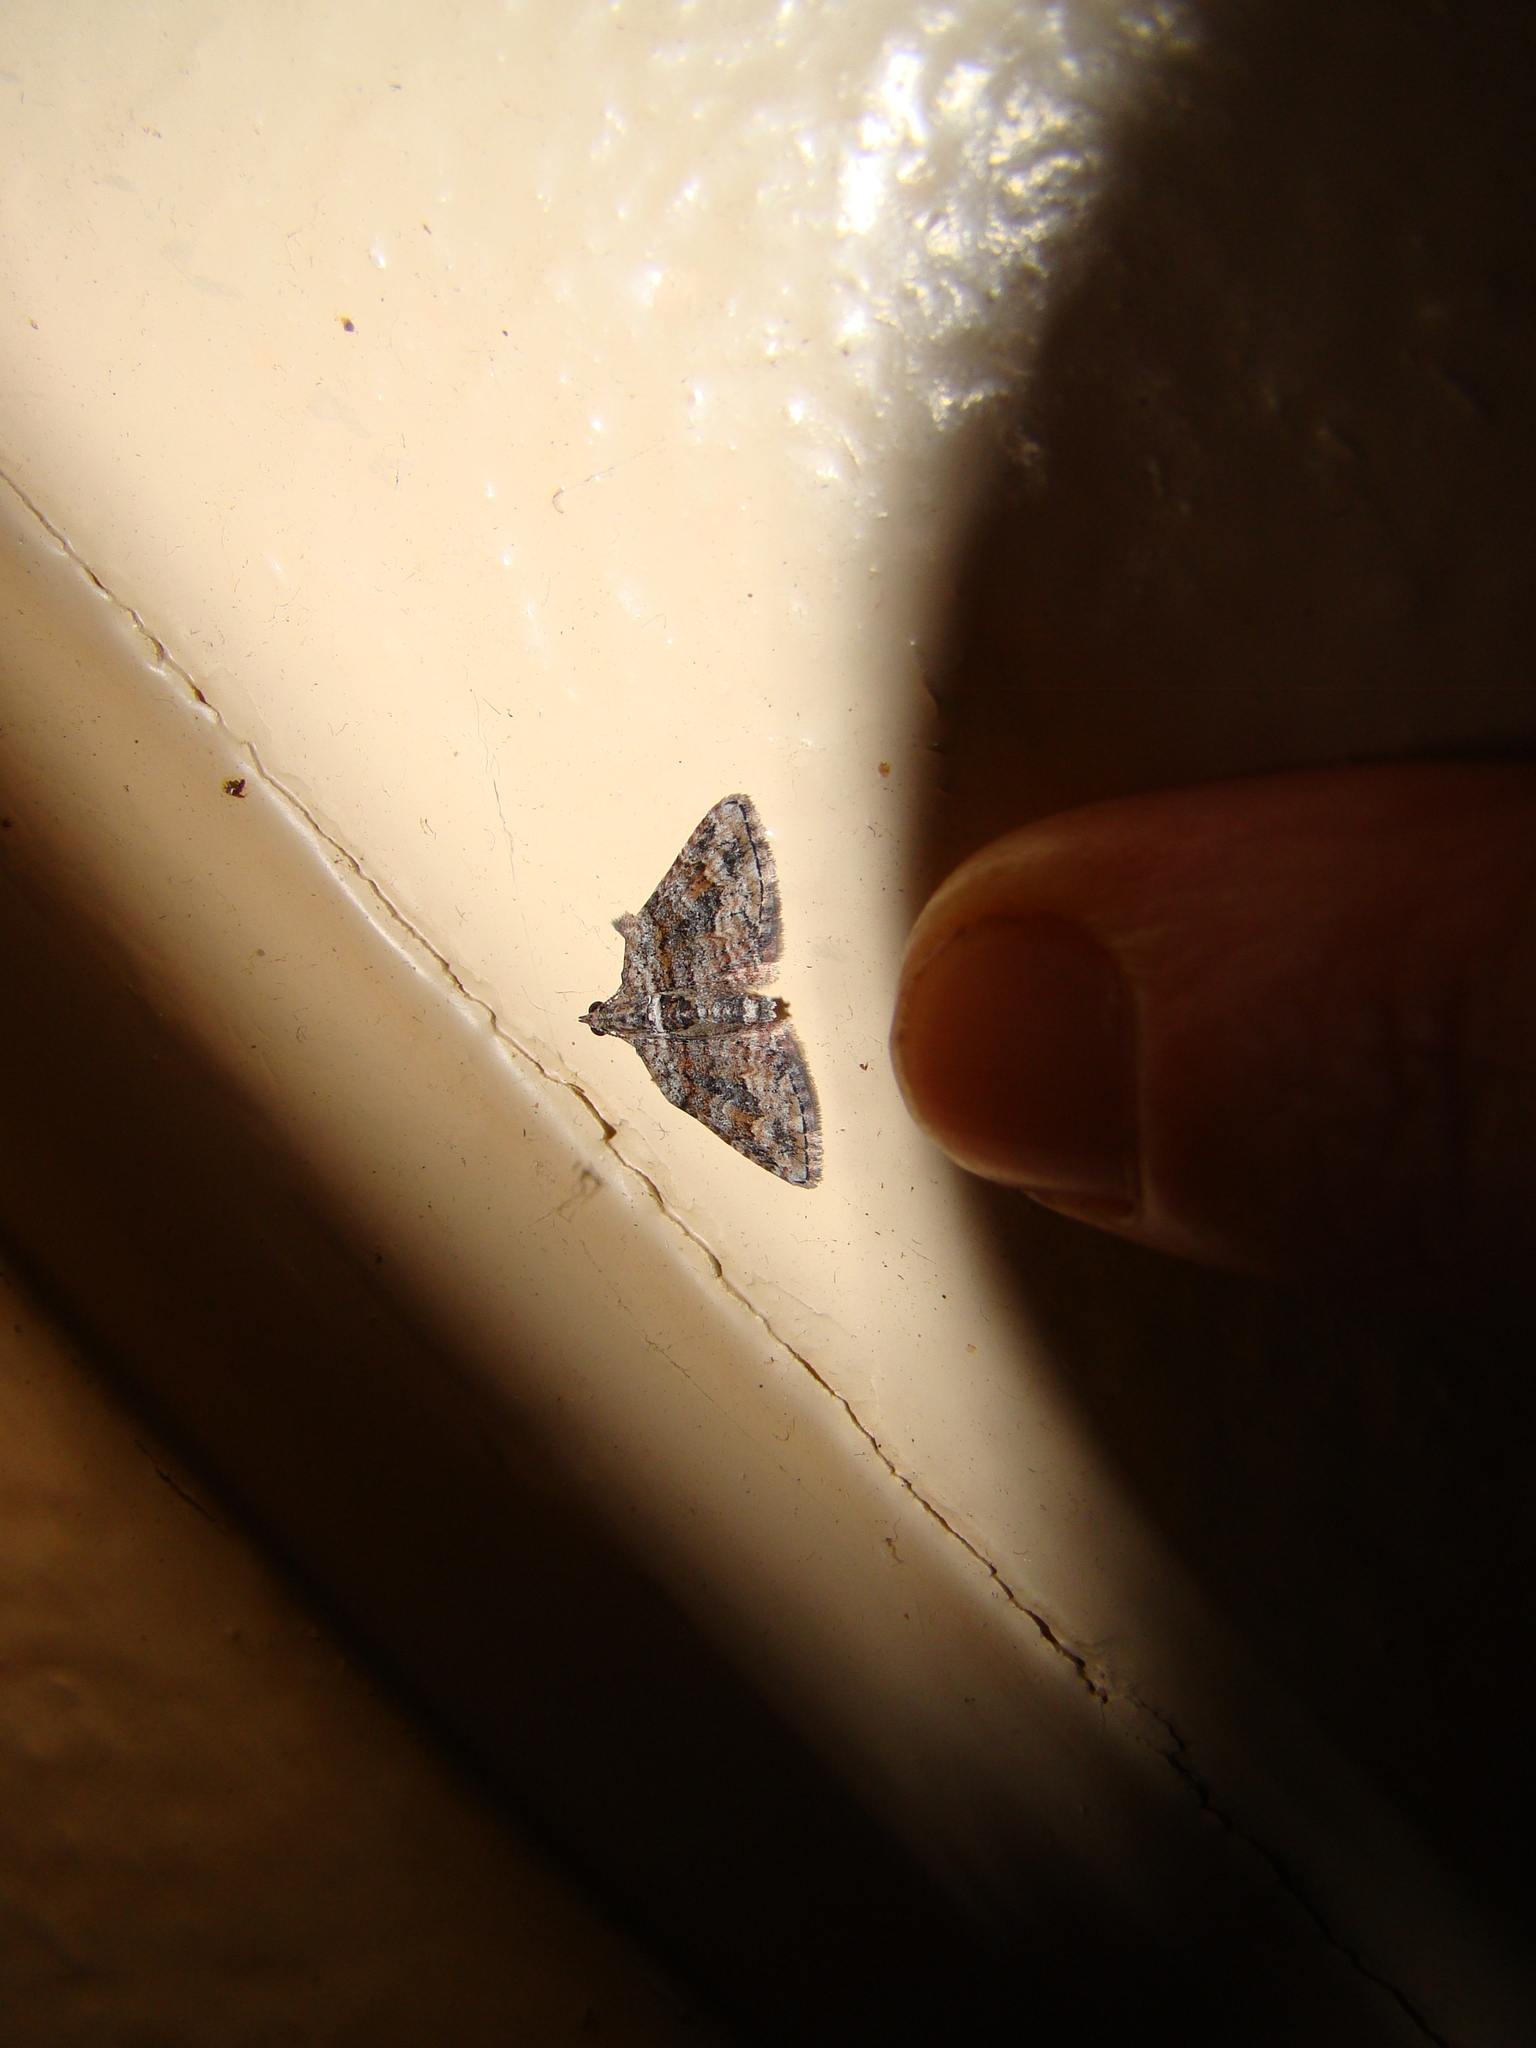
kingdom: Animalia
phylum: Arthropoda
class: Insecta
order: Lepidoptera
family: Geometridae
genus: Phrissogonus
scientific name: Phrissogonus laticostata
